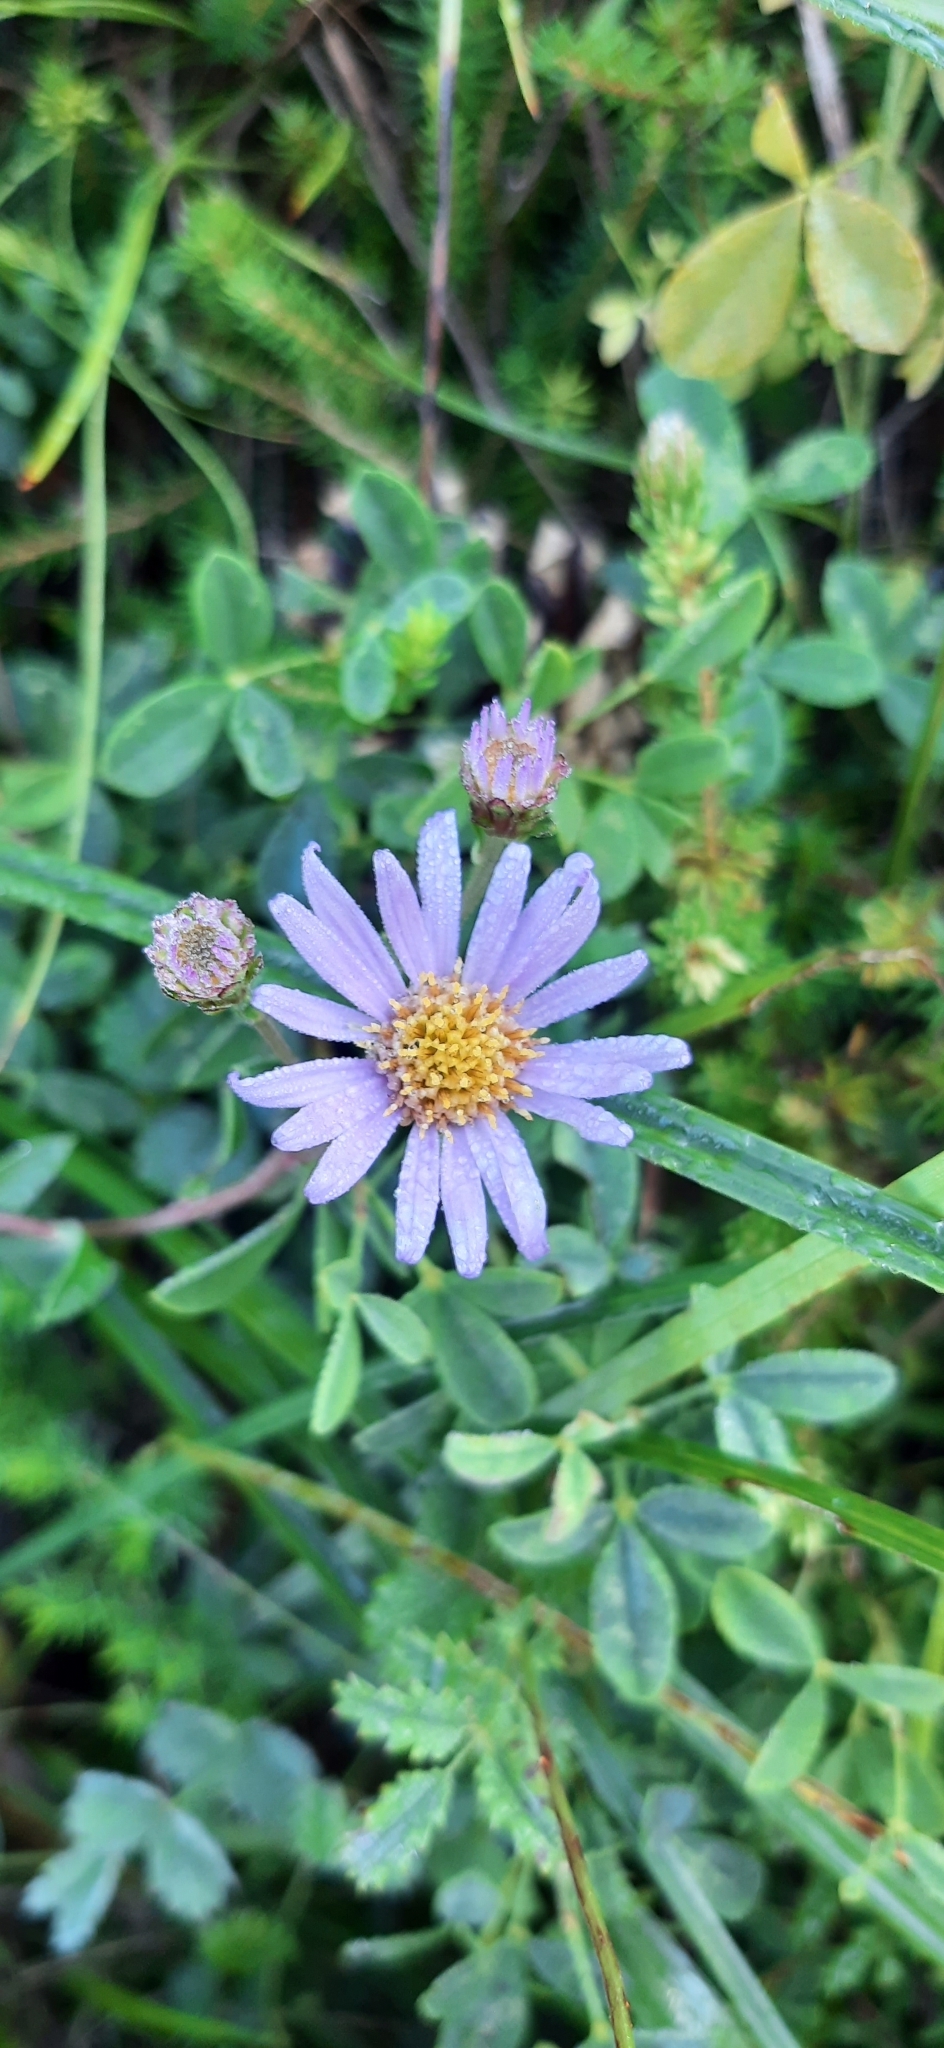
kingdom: Plantae
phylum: Tracheophyta
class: Magnoliopsida
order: Asterales
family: Asteraceae
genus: Aster
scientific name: Aster amellus
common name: European michaelmas daisy
